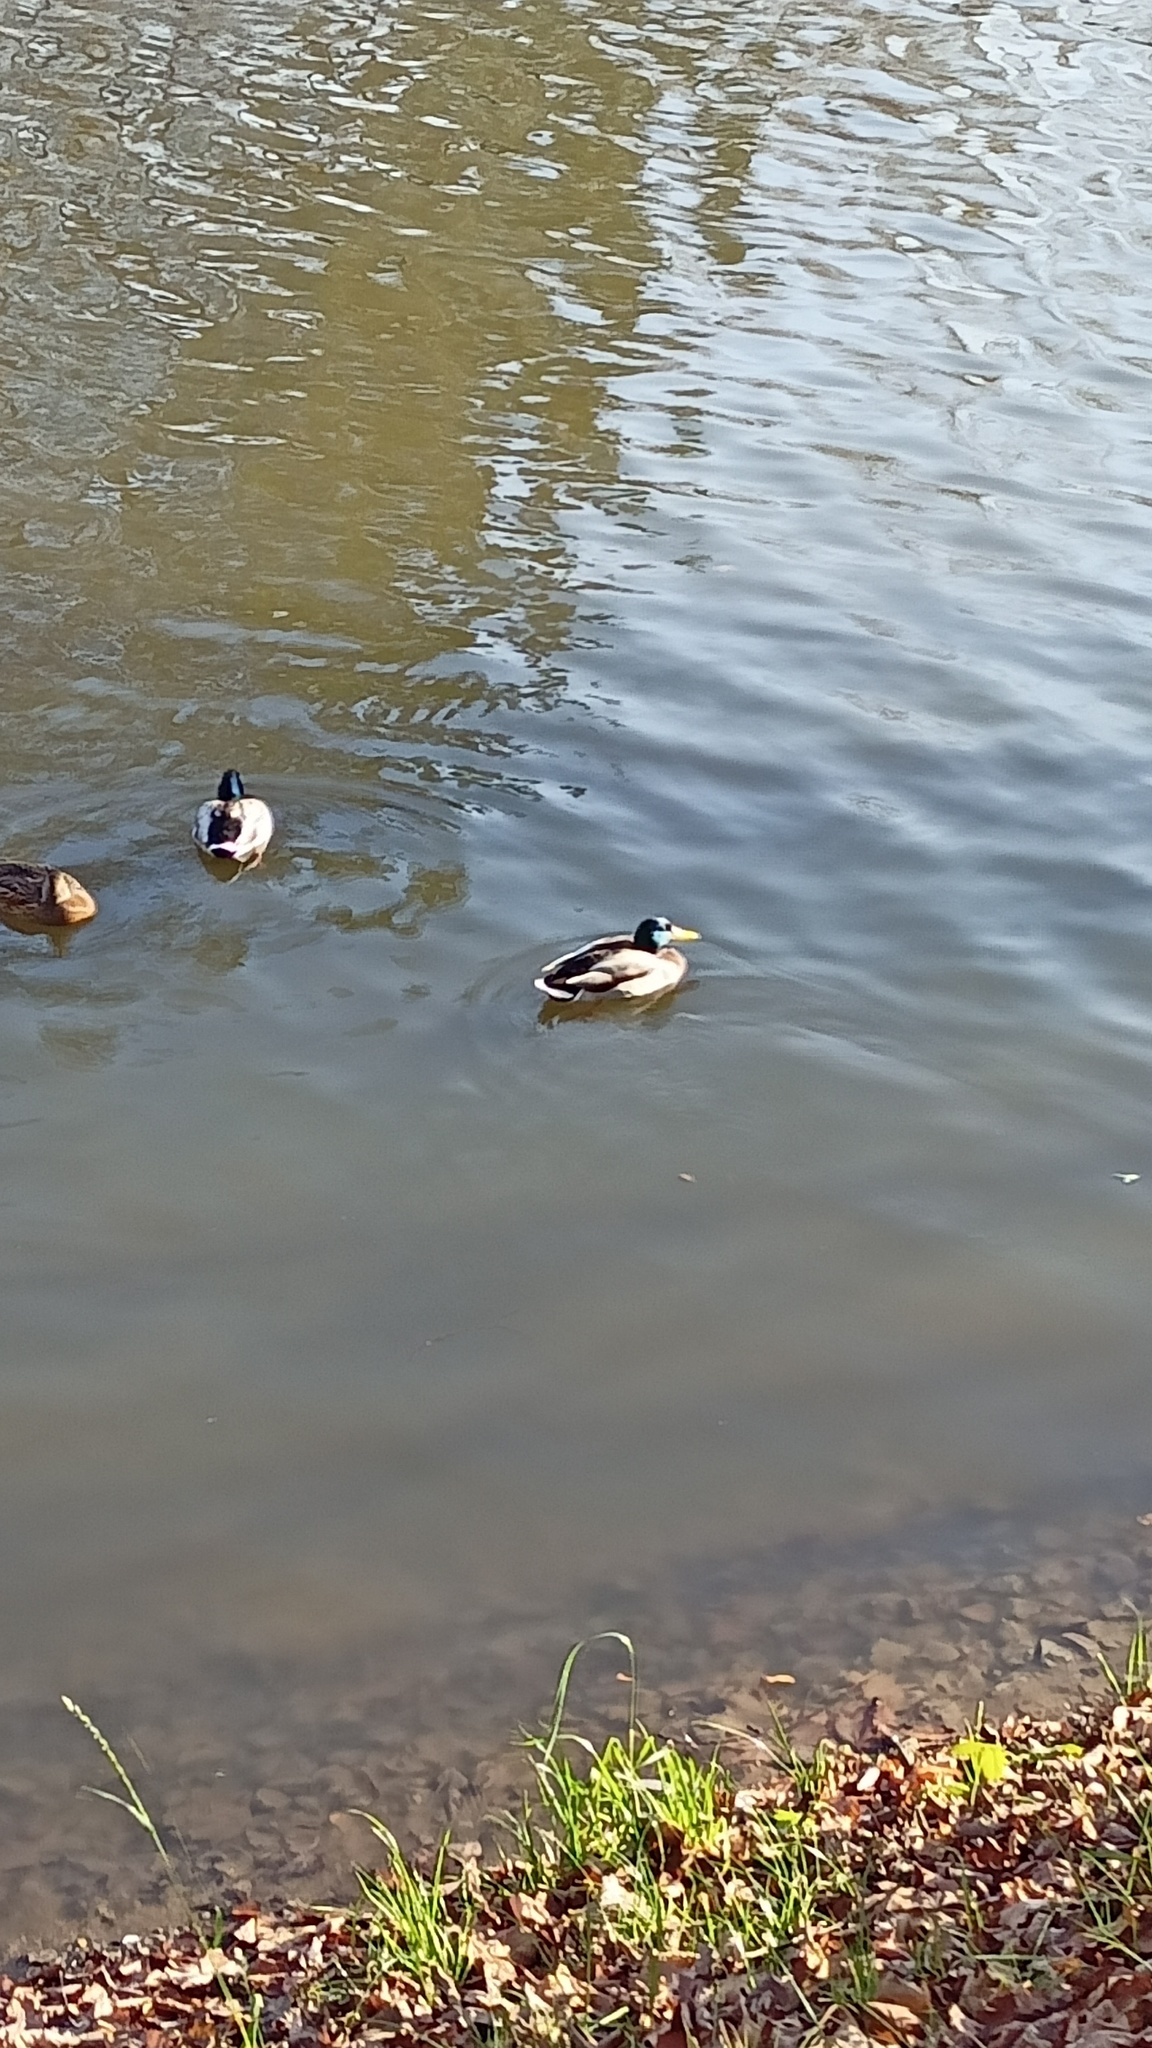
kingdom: Animalia
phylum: Chordata
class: Aves
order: Anseriformes
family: Anatidae
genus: Anas
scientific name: Anas platyrhynchos
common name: Mallard
